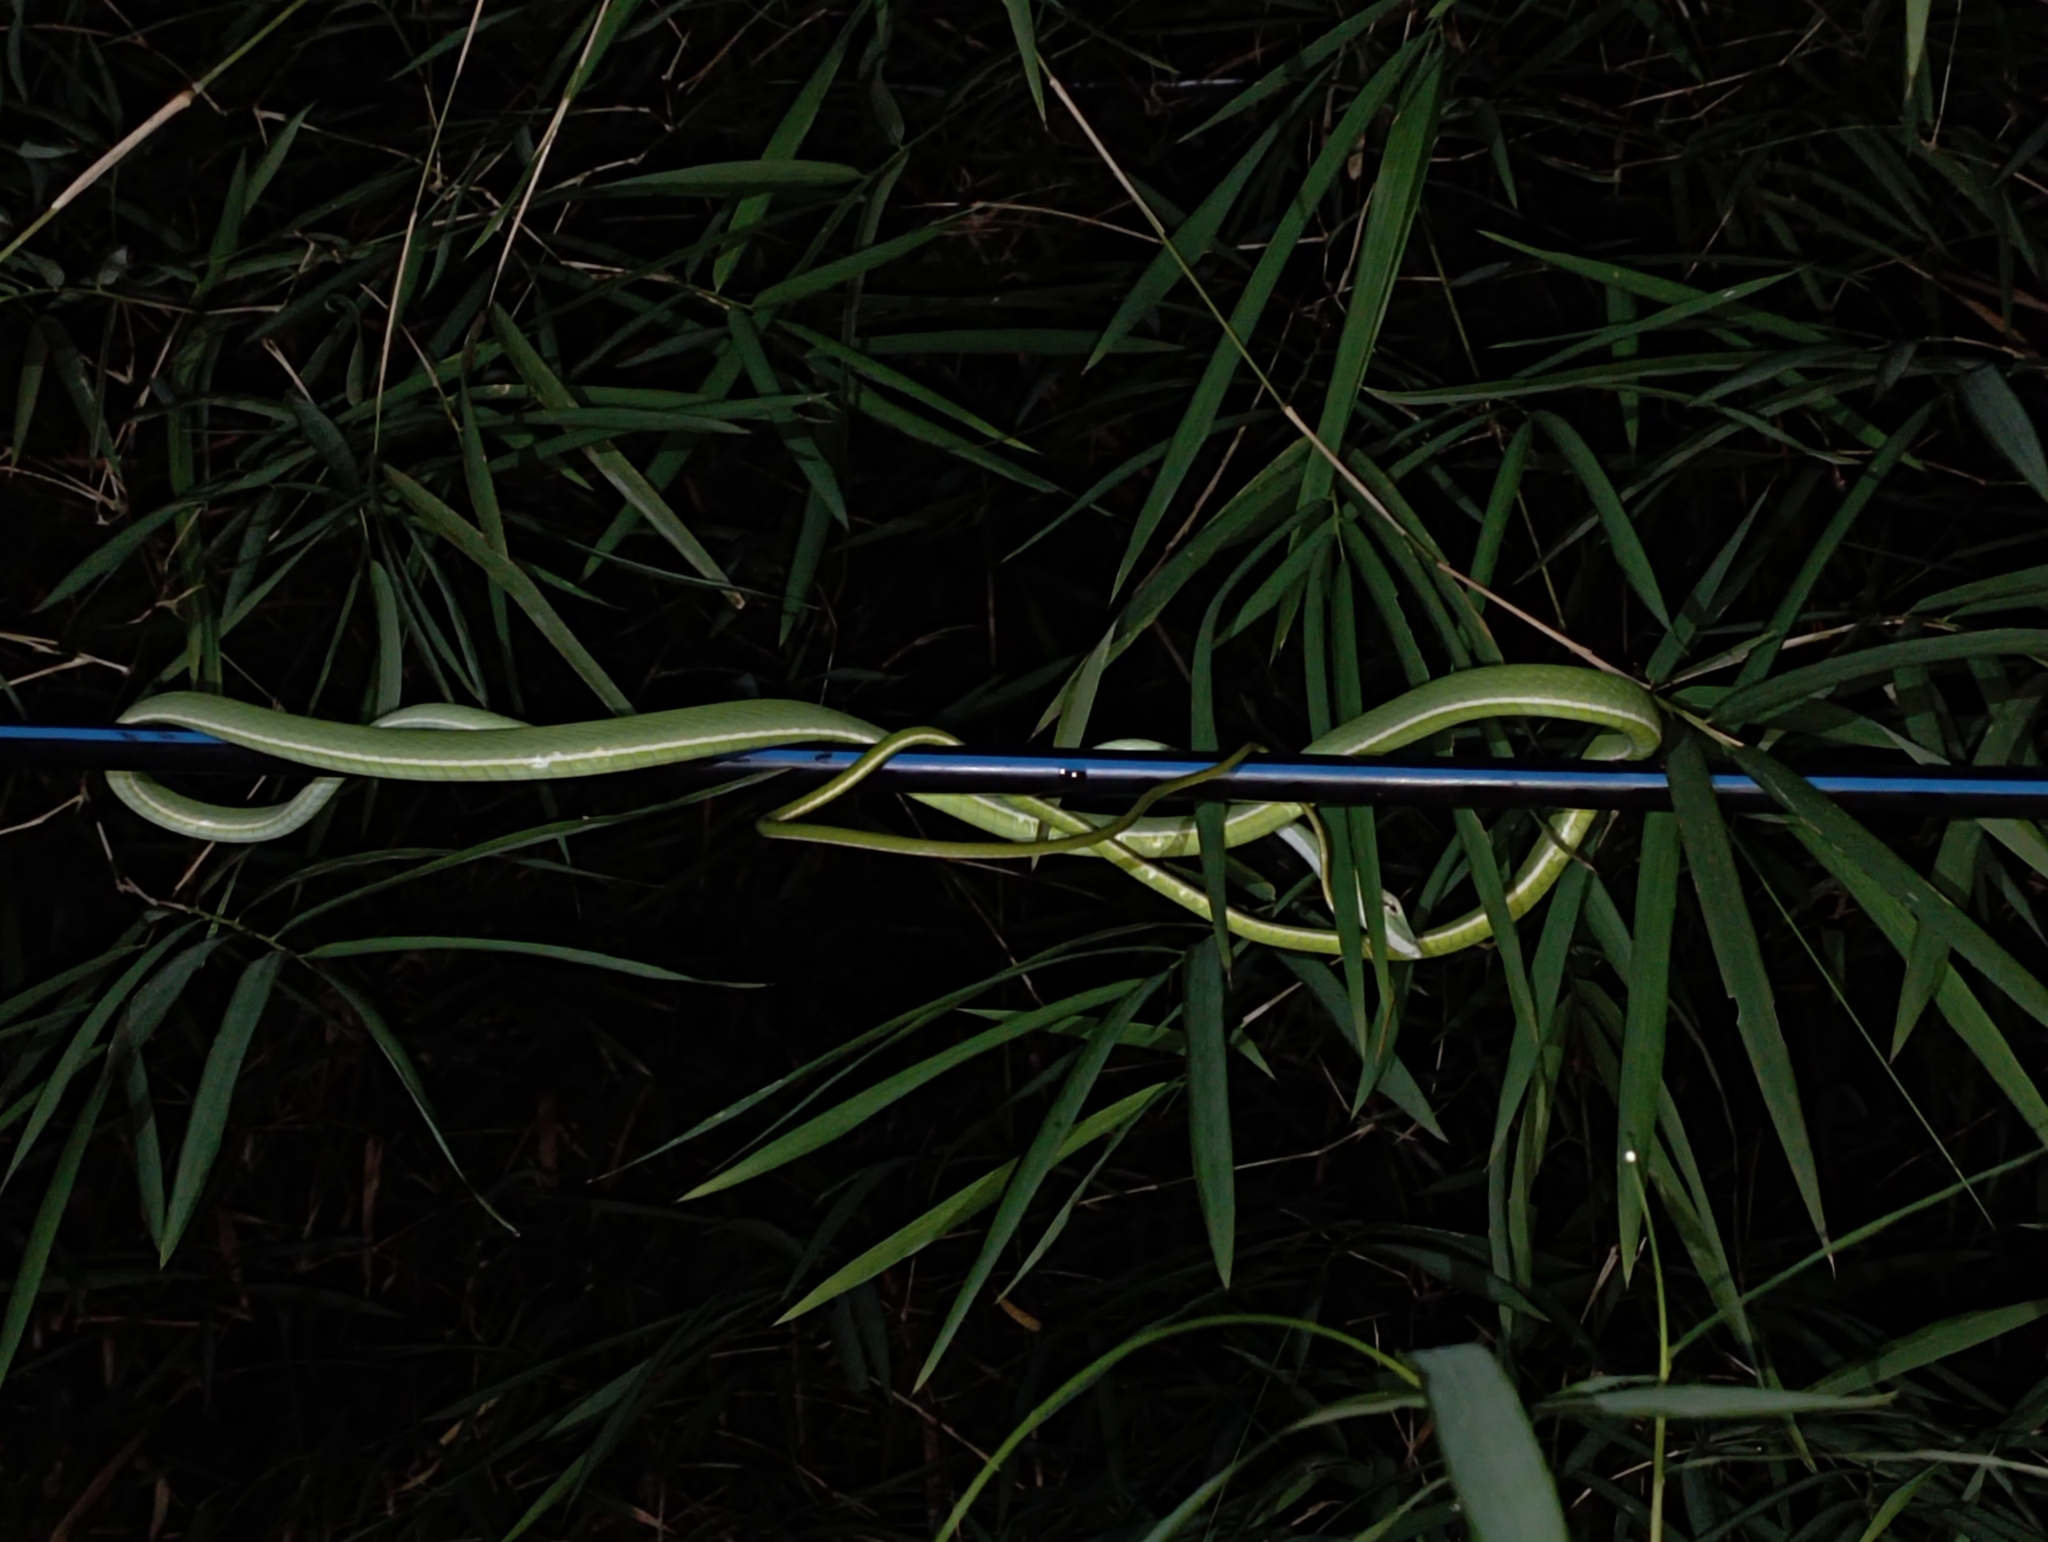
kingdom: Animalia
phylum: Chordata
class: Squamata
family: Colubridae
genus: Ahaetulla
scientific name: Ahaetulla prasina
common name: Oriental whip snake
